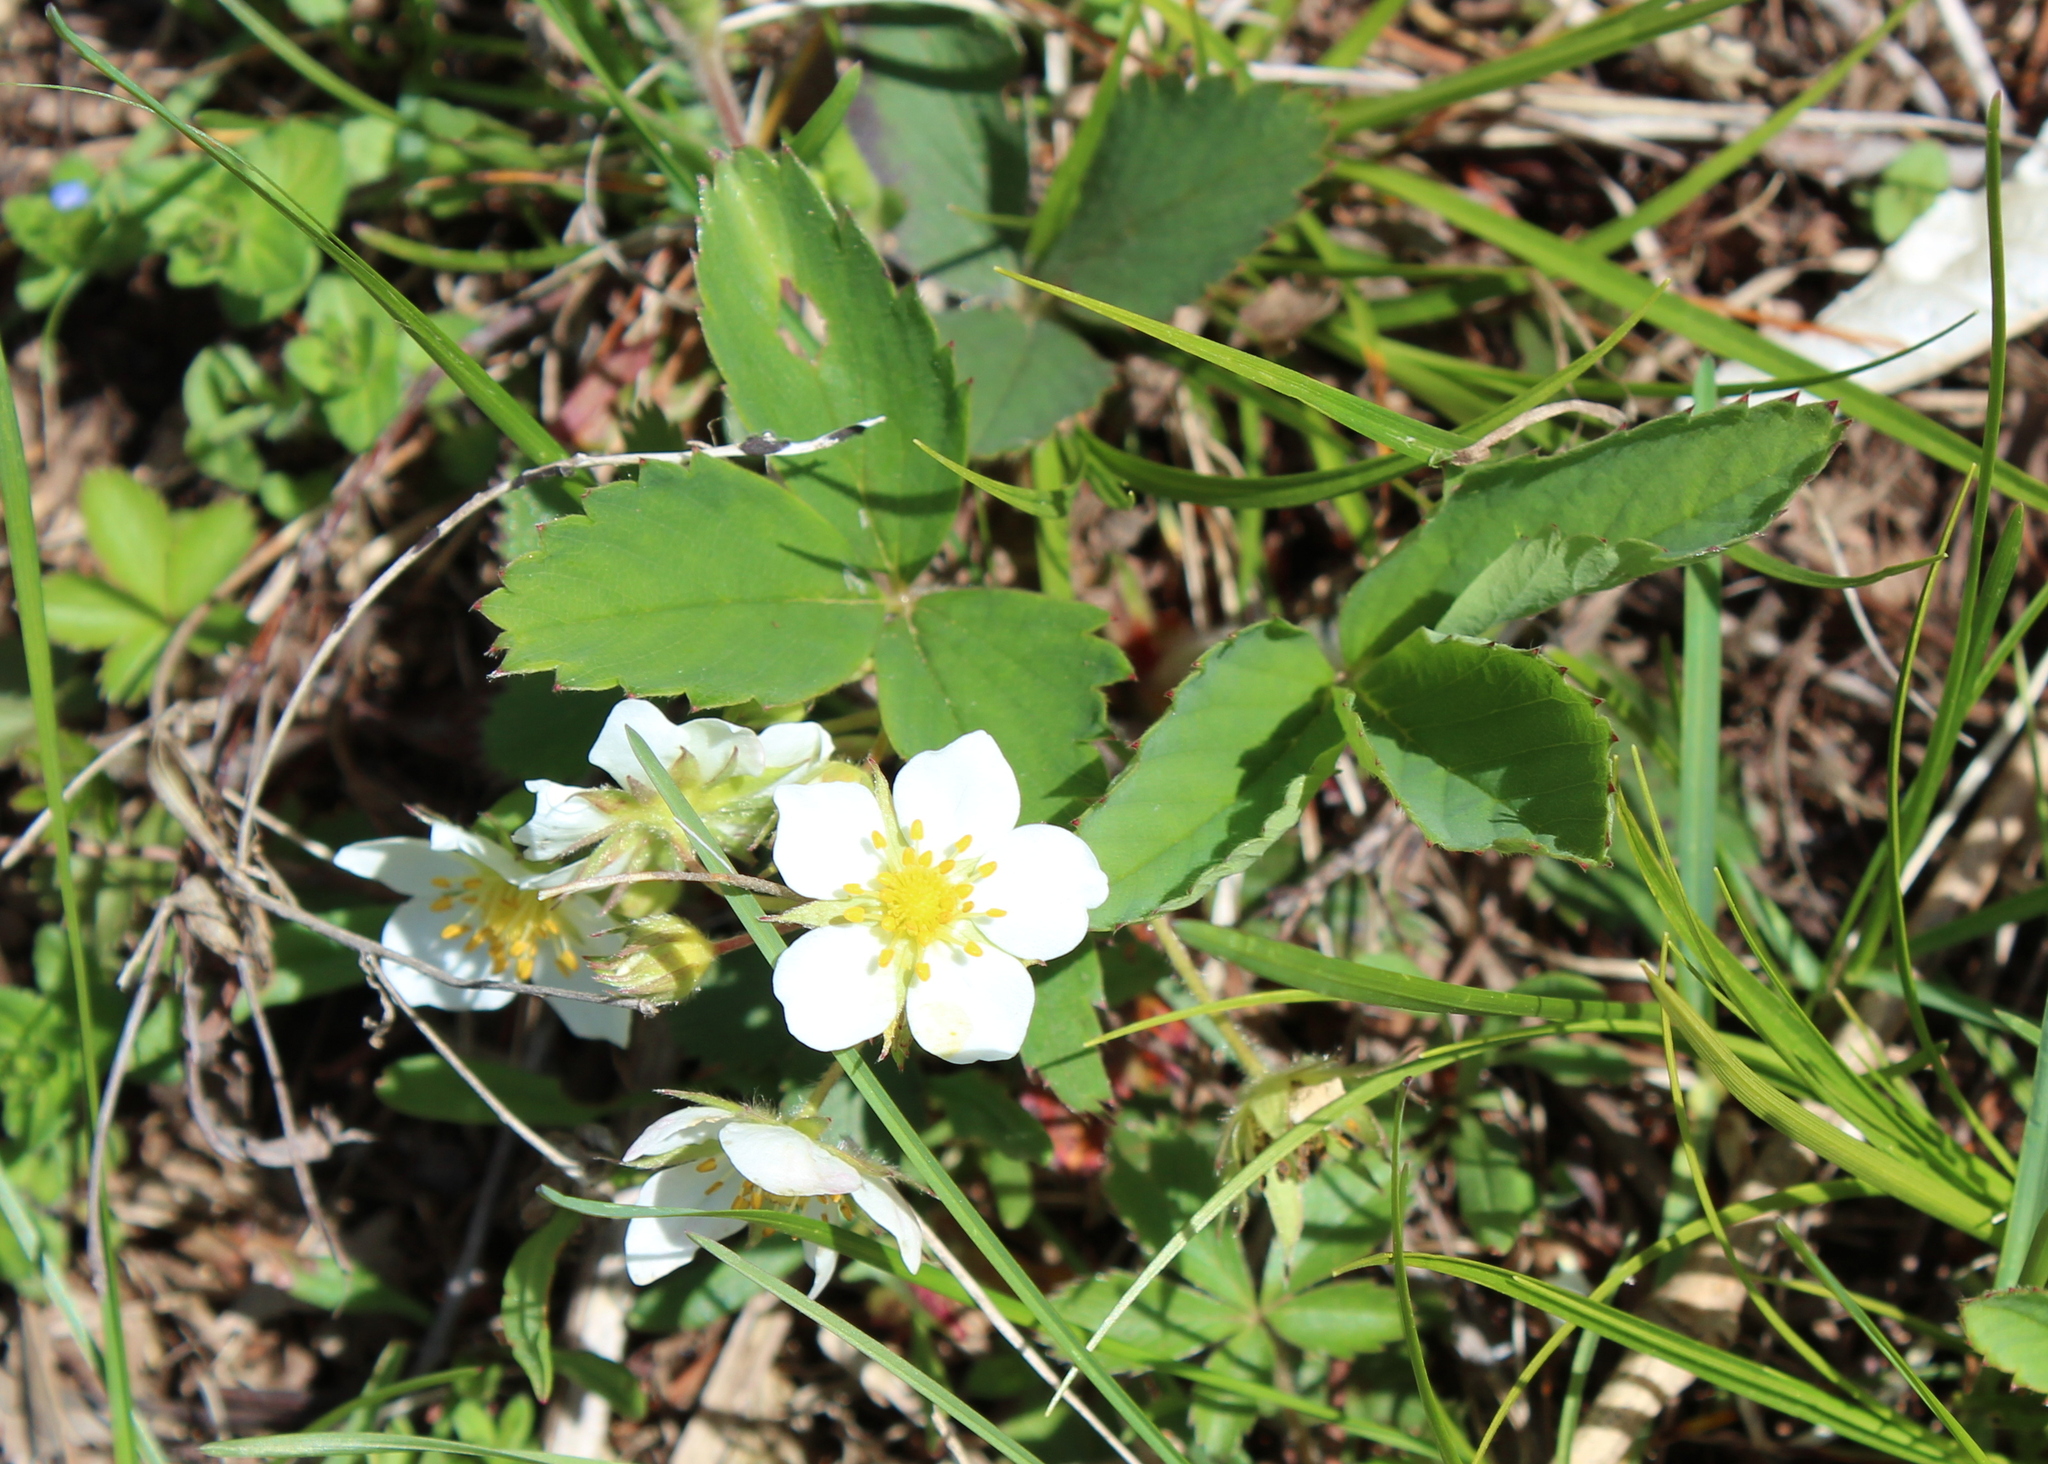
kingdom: Plantae
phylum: Tracheophyta
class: Magnoliopsida
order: Rosales
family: Rosaceae
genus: Fragaria
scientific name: Fragaria virginiana
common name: Thickleaved wild strawberry
